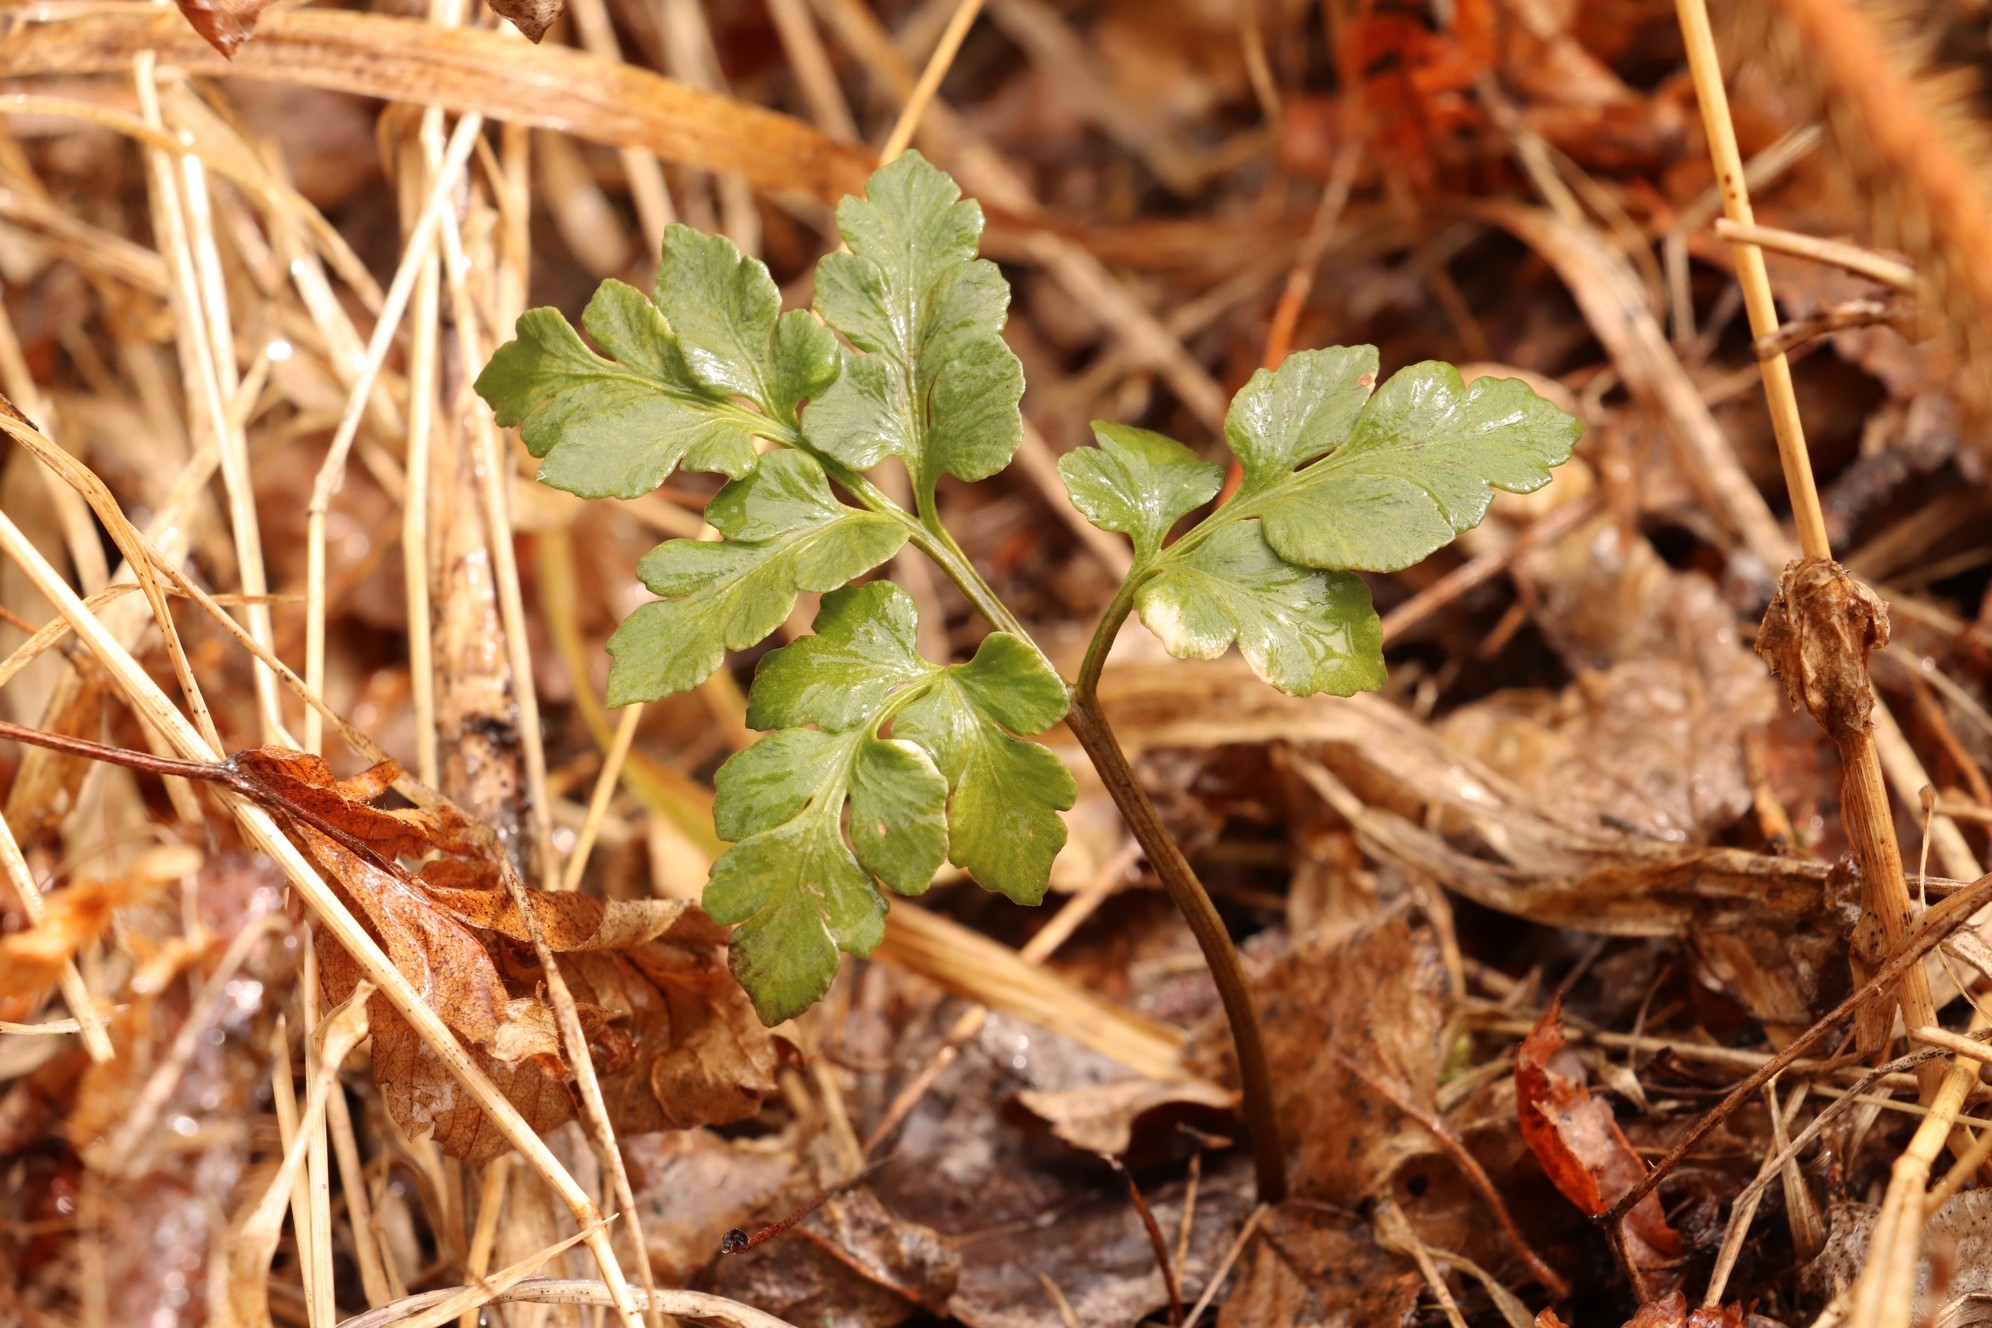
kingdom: Plantae
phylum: Tracheophyta
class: Polypodiopsida
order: Ophioglossales
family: Ophioglossaceae
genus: Sceptridium
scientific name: Sceptridium multifidum
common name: Leathery grape fern
